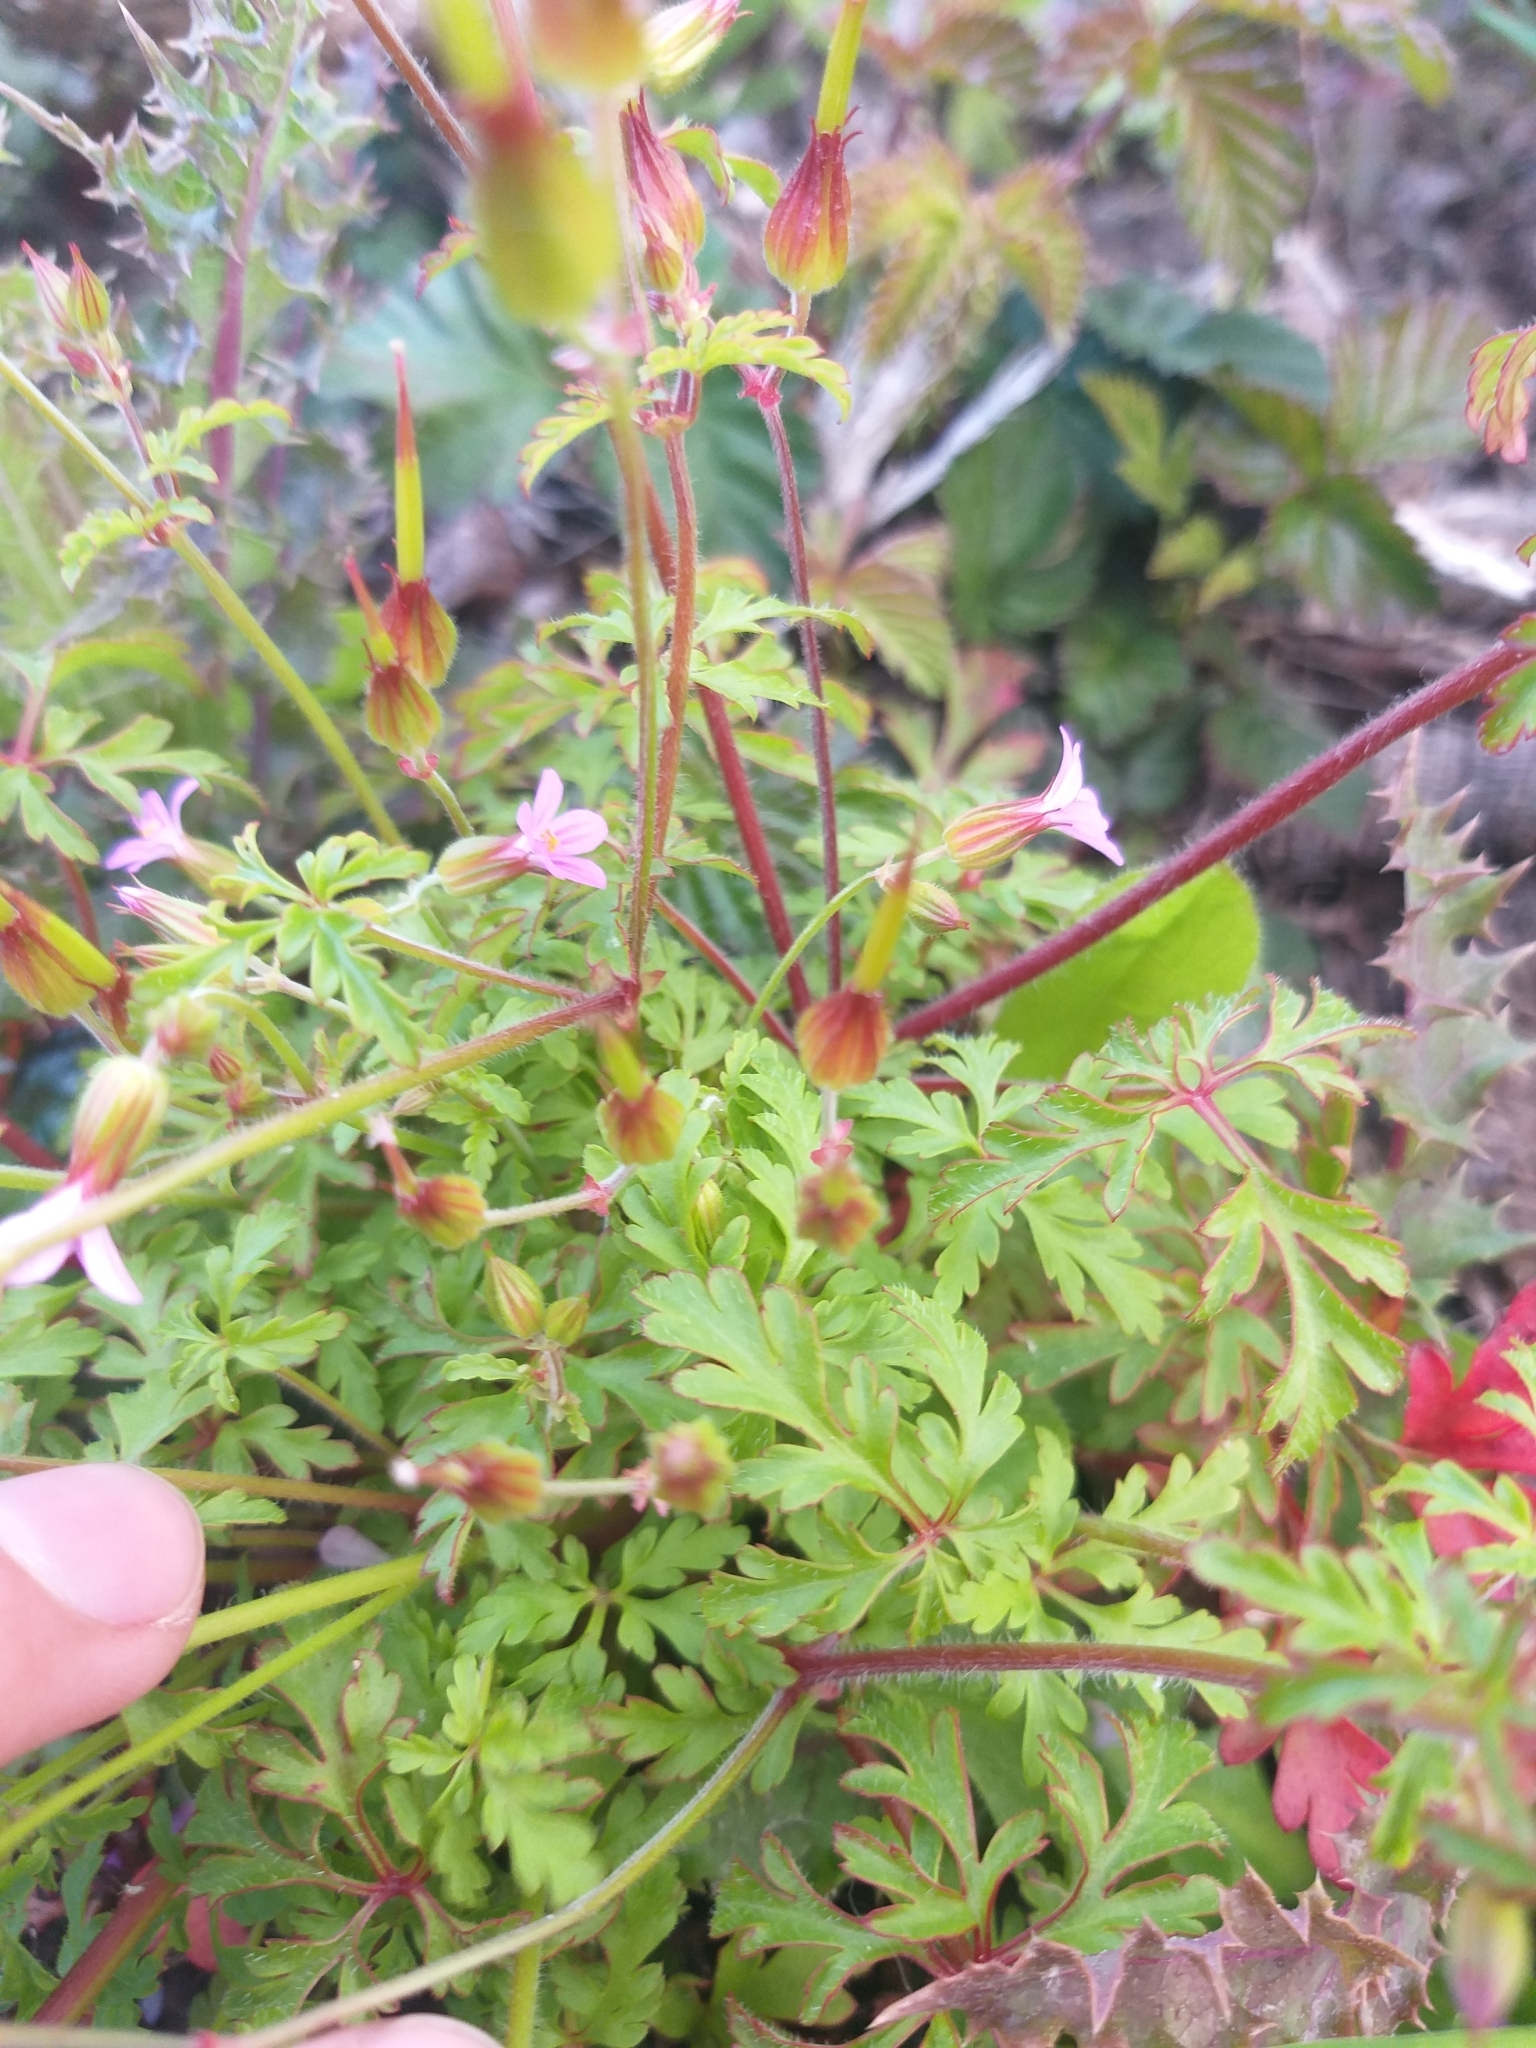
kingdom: Plantae
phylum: Tracheophyta
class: Magnoliopsida
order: Geraniales
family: Geraniaceae
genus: Geranium
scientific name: Geranium purpureum
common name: Little-robin
